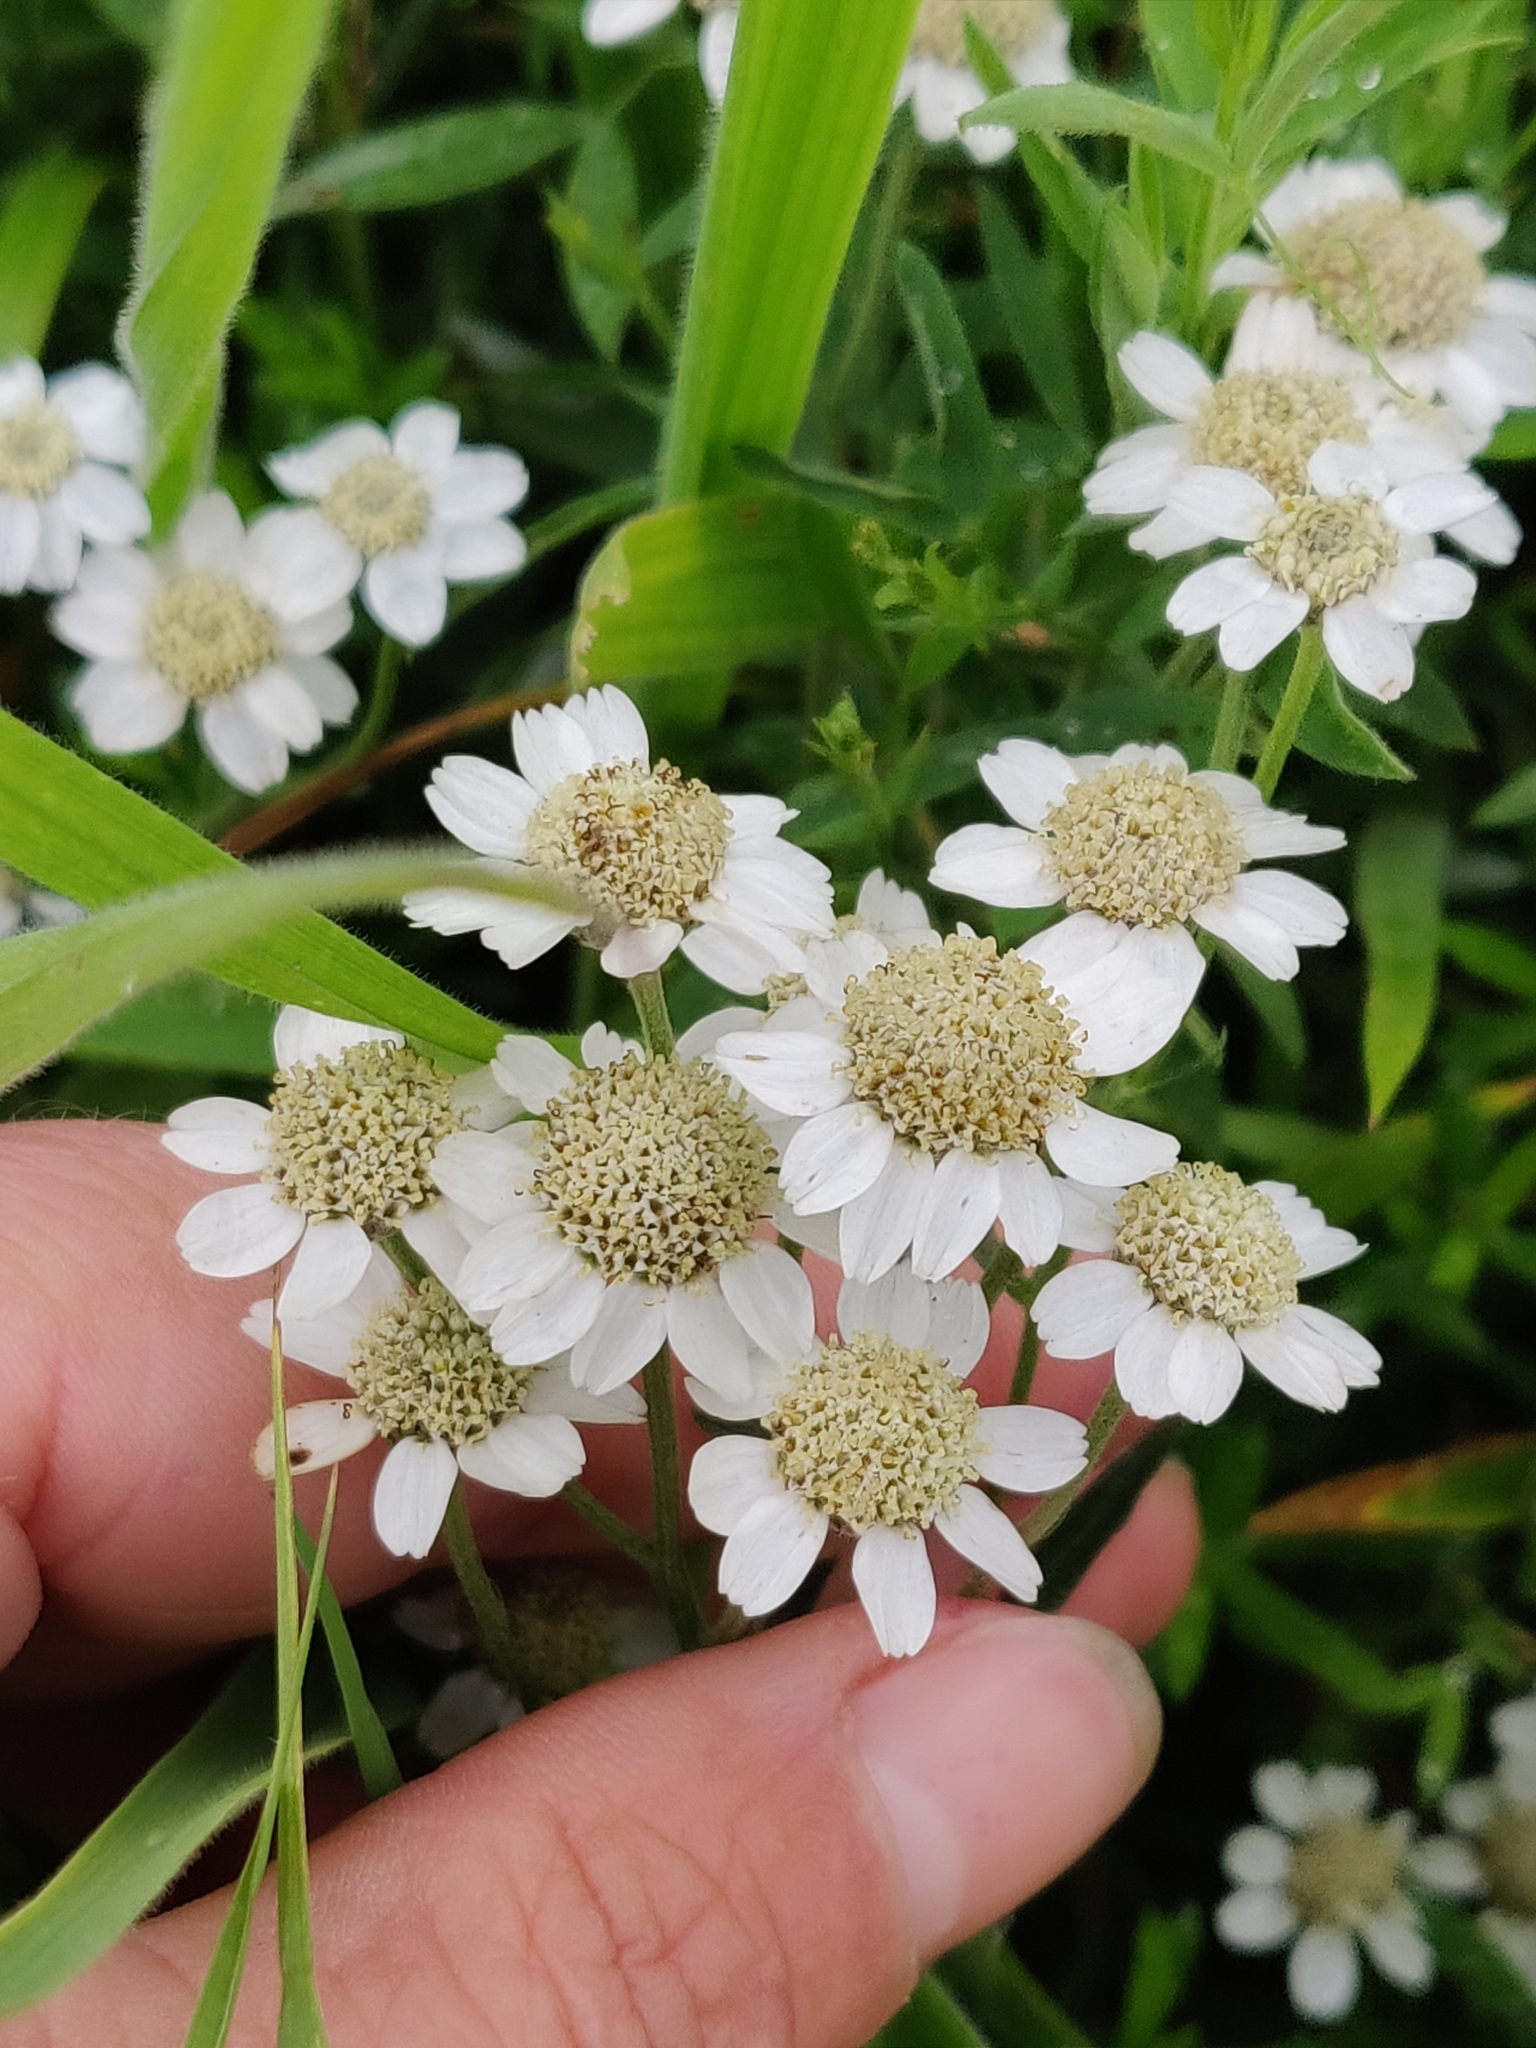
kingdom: Plantae
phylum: Tracheophyta
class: Magnoliopsida
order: Asterales
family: Asteraceae
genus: Achillea
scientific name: Achillea ptarmica
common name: Sneezeweed
